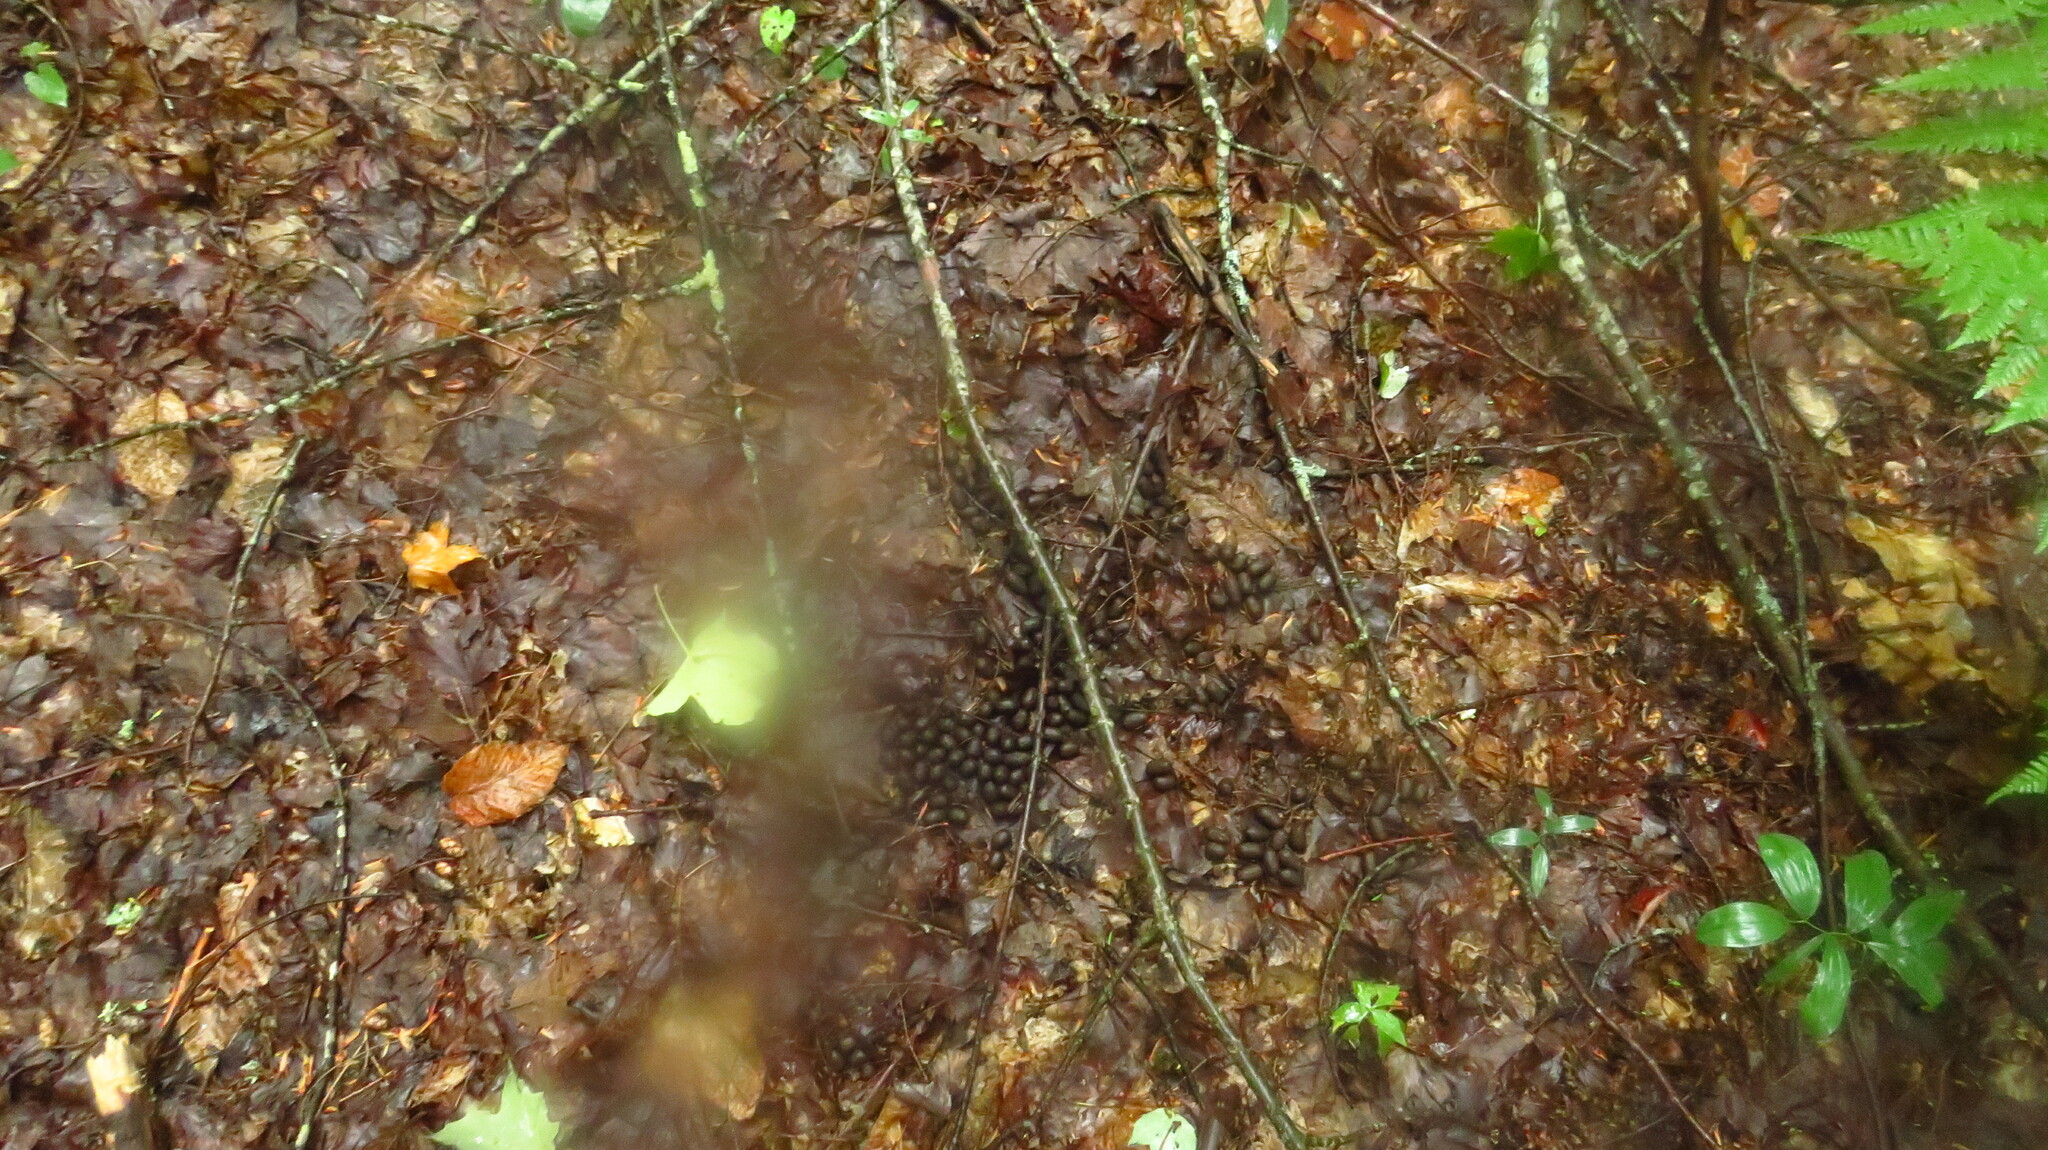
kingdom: Animalia
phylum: Chordata
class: Mammalia
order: Artiodactyla
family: Cervidae
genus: Odocoileus
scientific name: Odocoileus virginianus
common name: White-tailed deer
